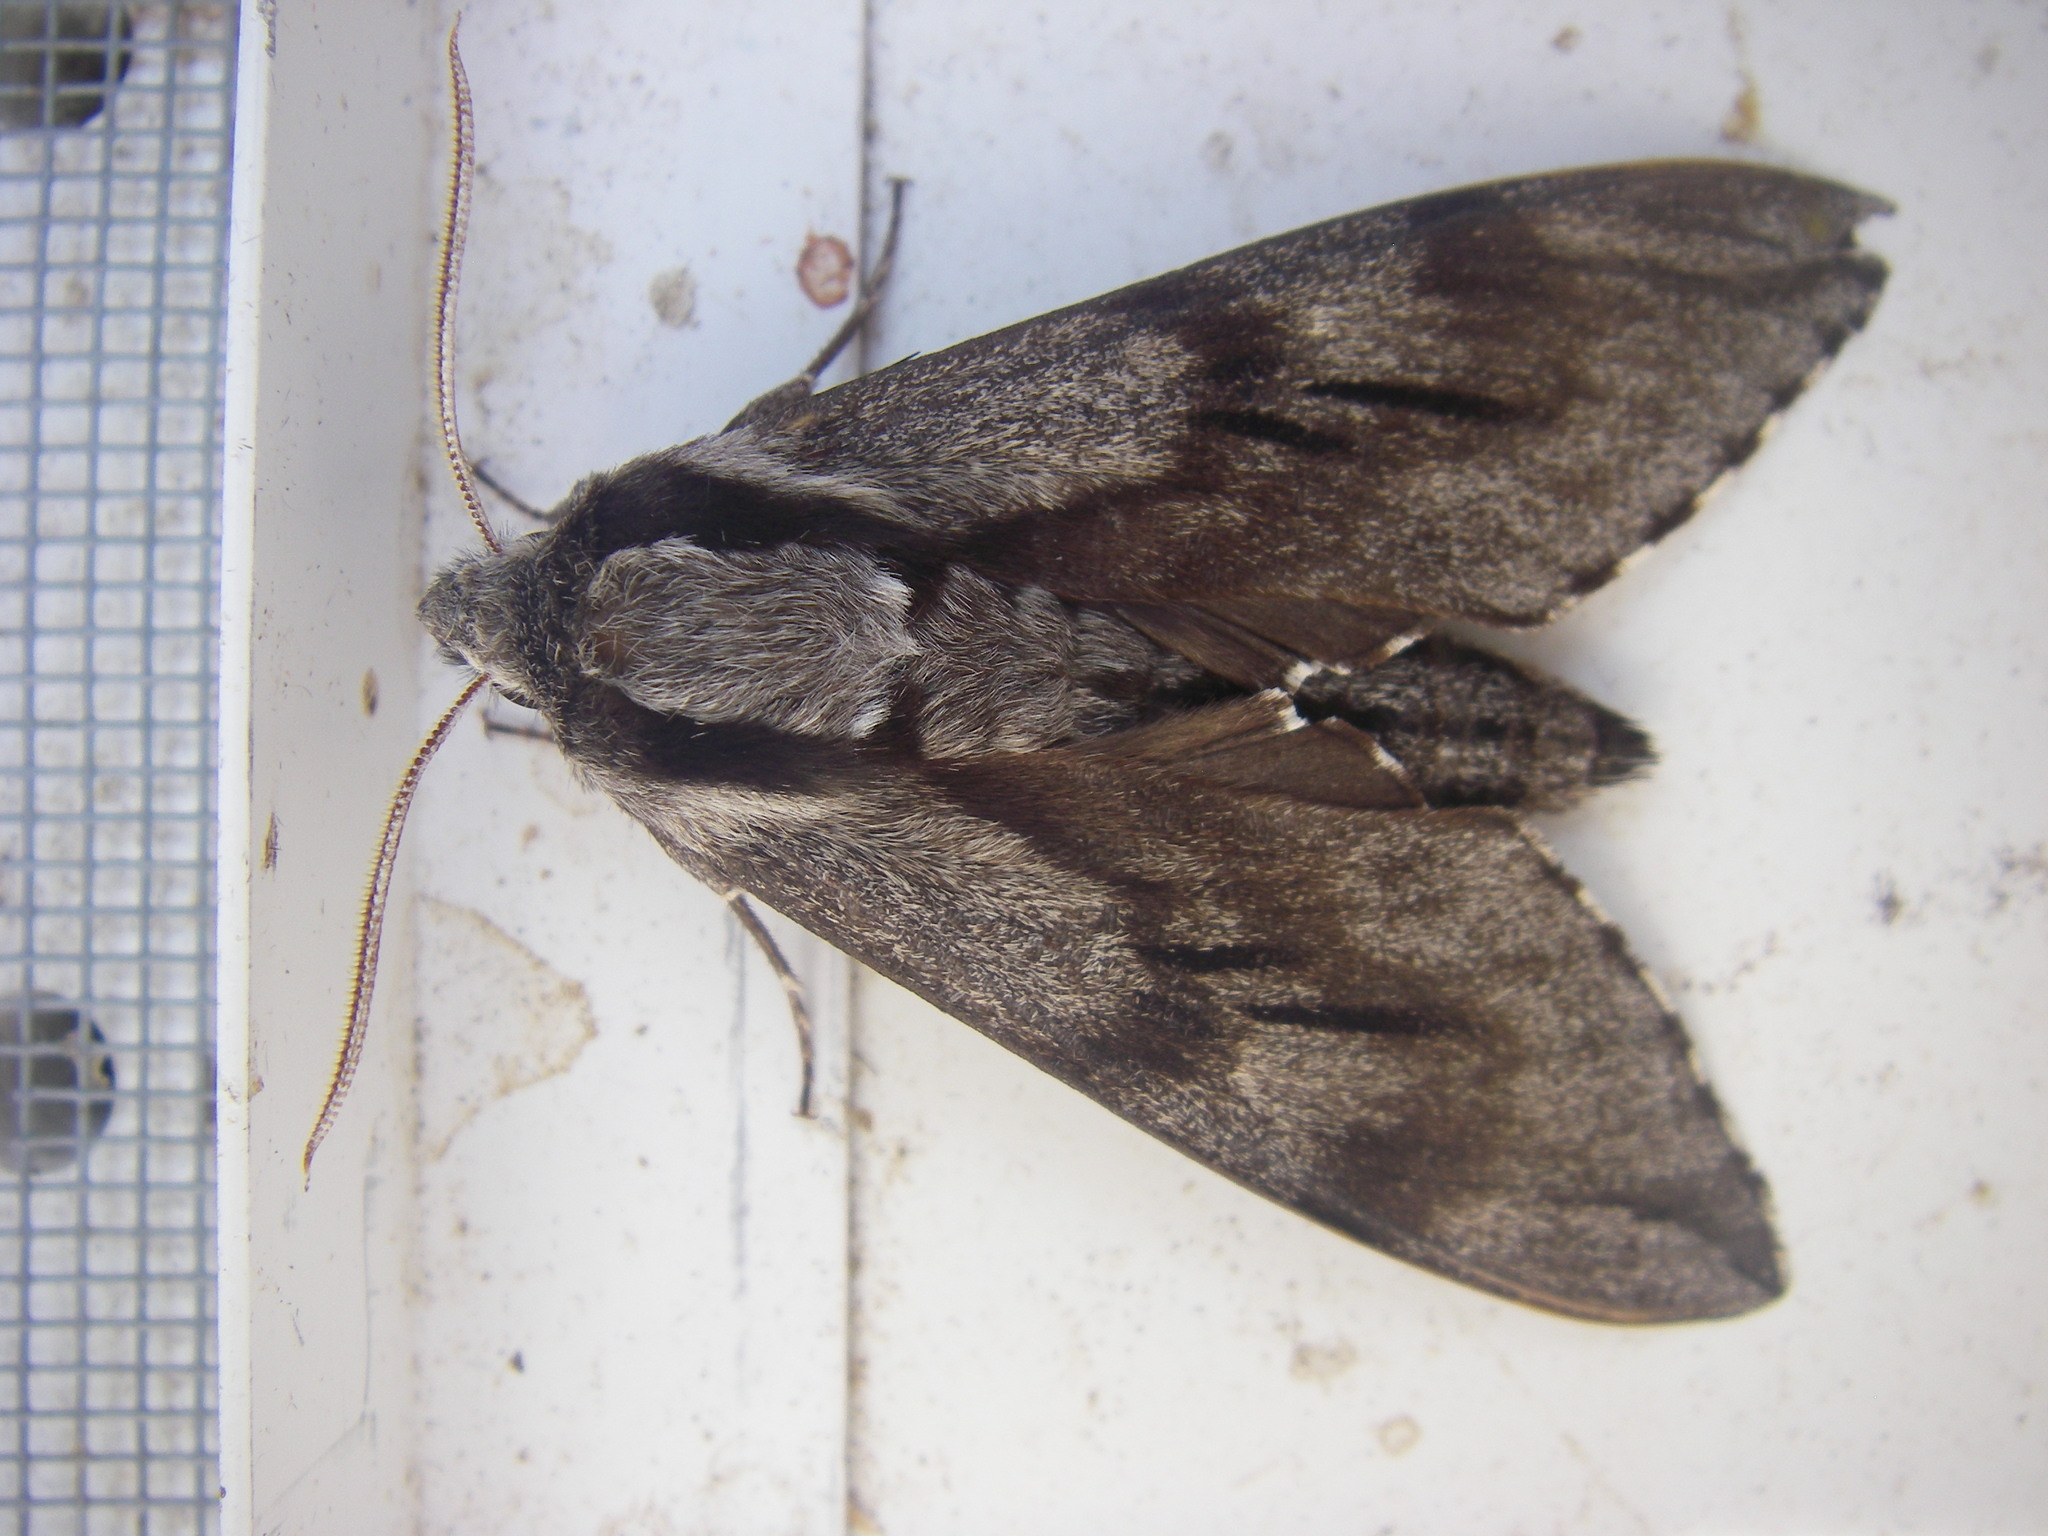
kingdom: Animalia
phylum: Arthropoda
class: Insecta
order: Lepidoptera
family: Sphingidae
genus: Sphinx
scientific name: Sphinx pinastri
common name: Pine hawk-moth
